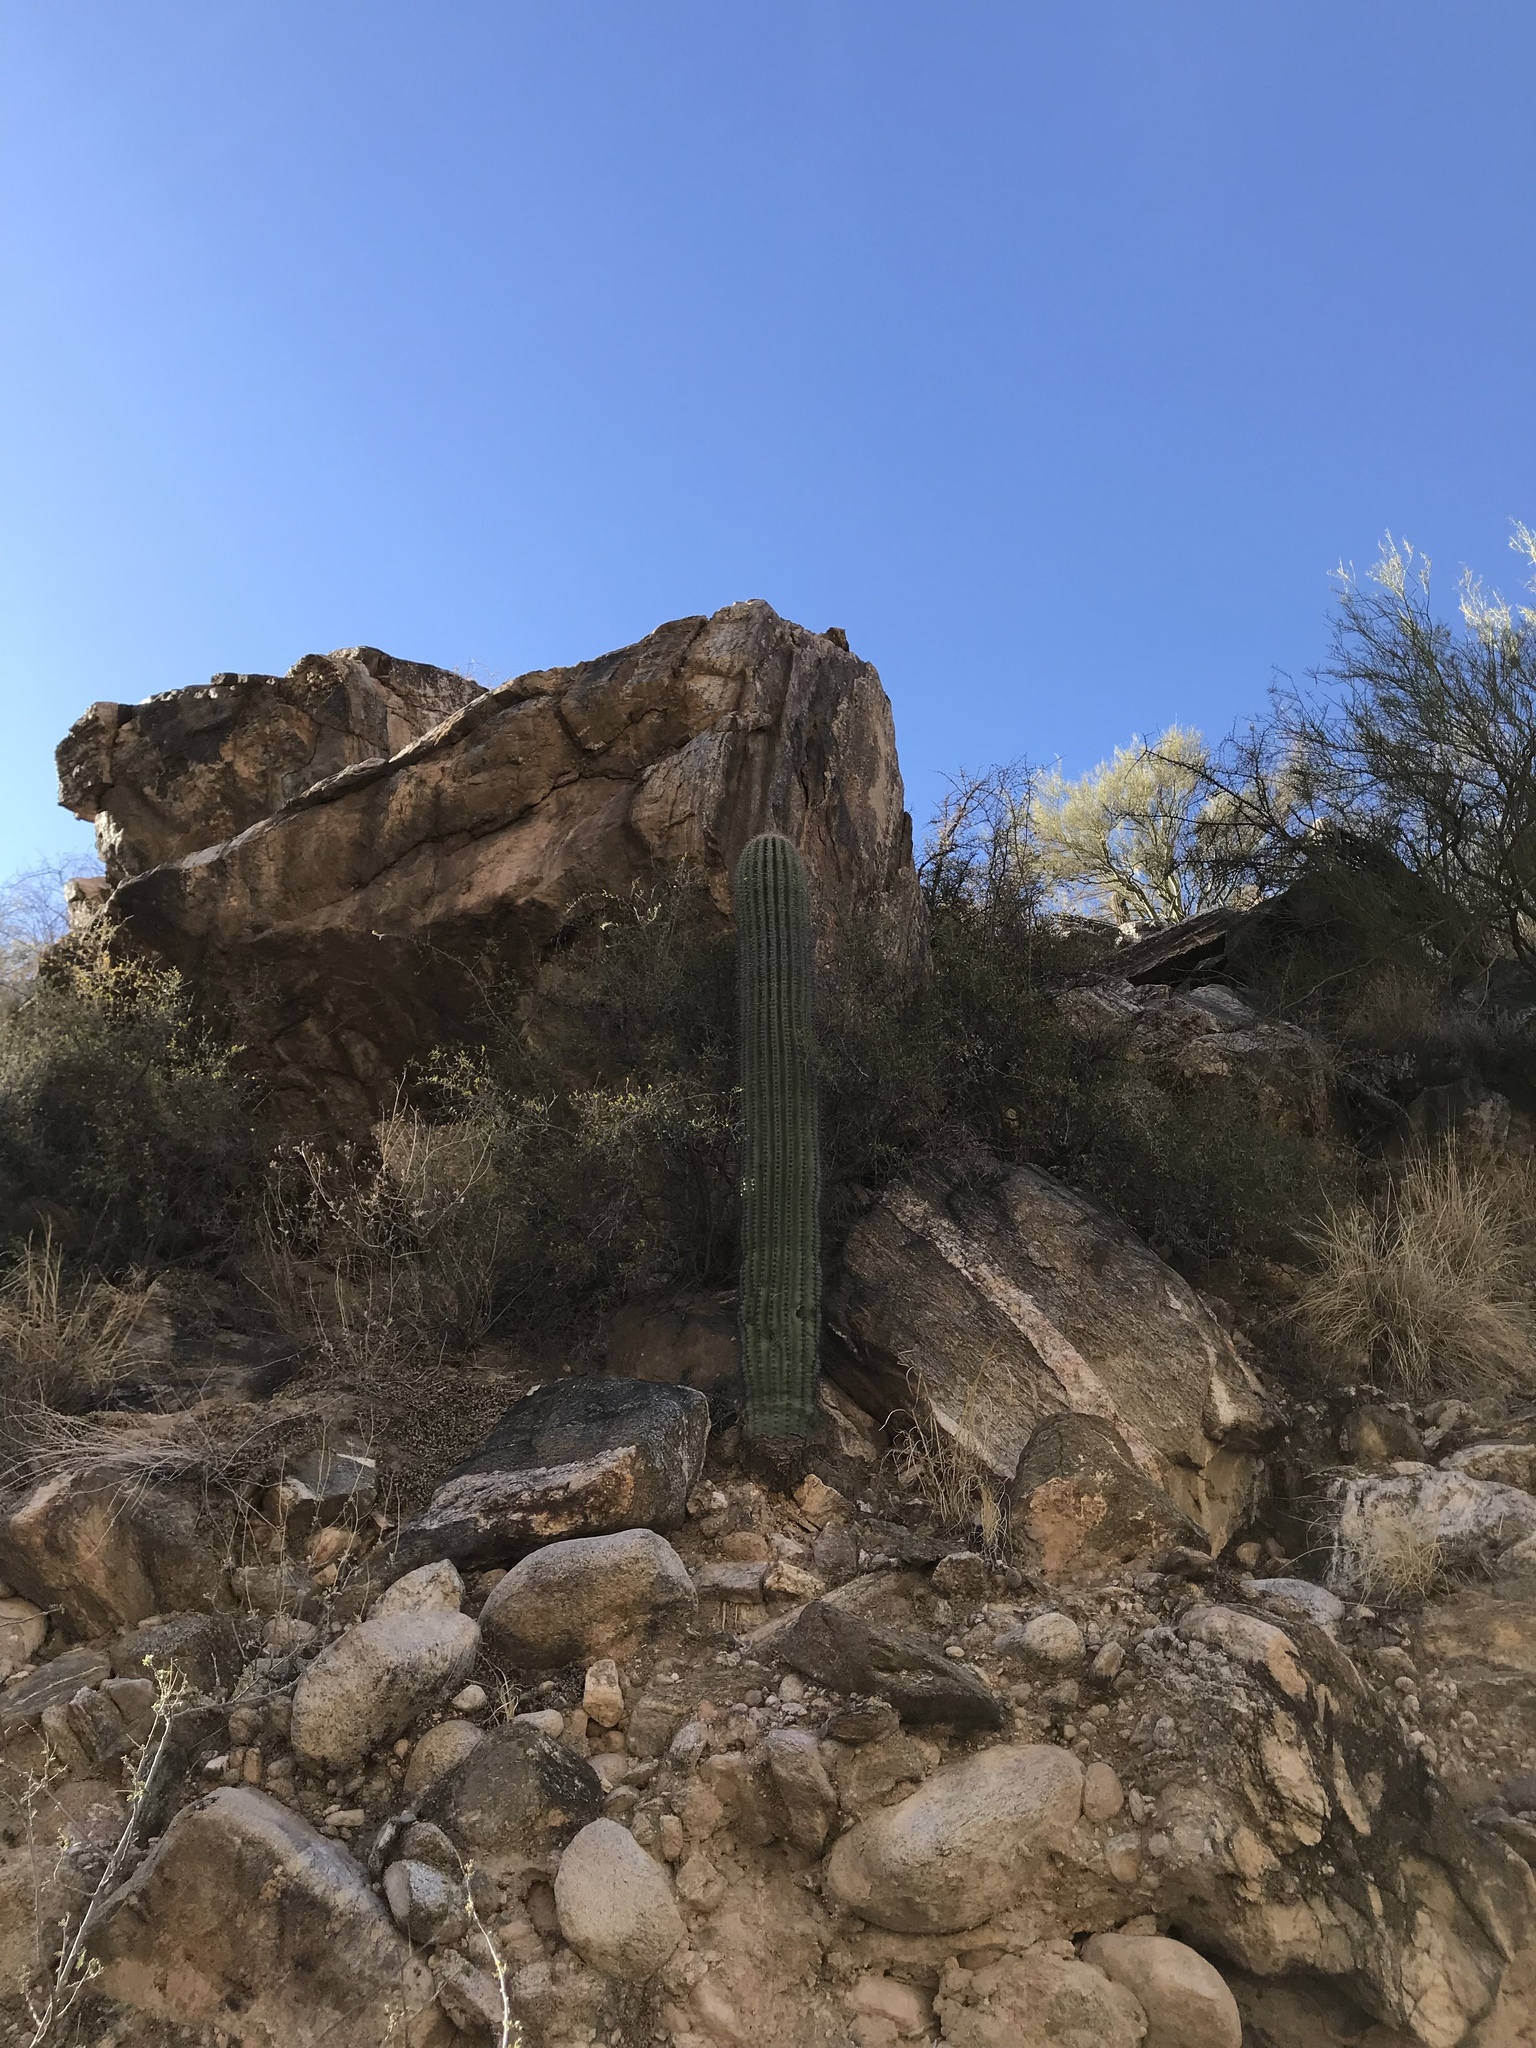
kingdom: Plantae
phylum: Tracheophyta
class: Magnoliopsida
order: Caryophyllales
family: Cactaceae
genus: Carnegiea
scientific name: Carnegiea gigantea
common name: Saguaro
